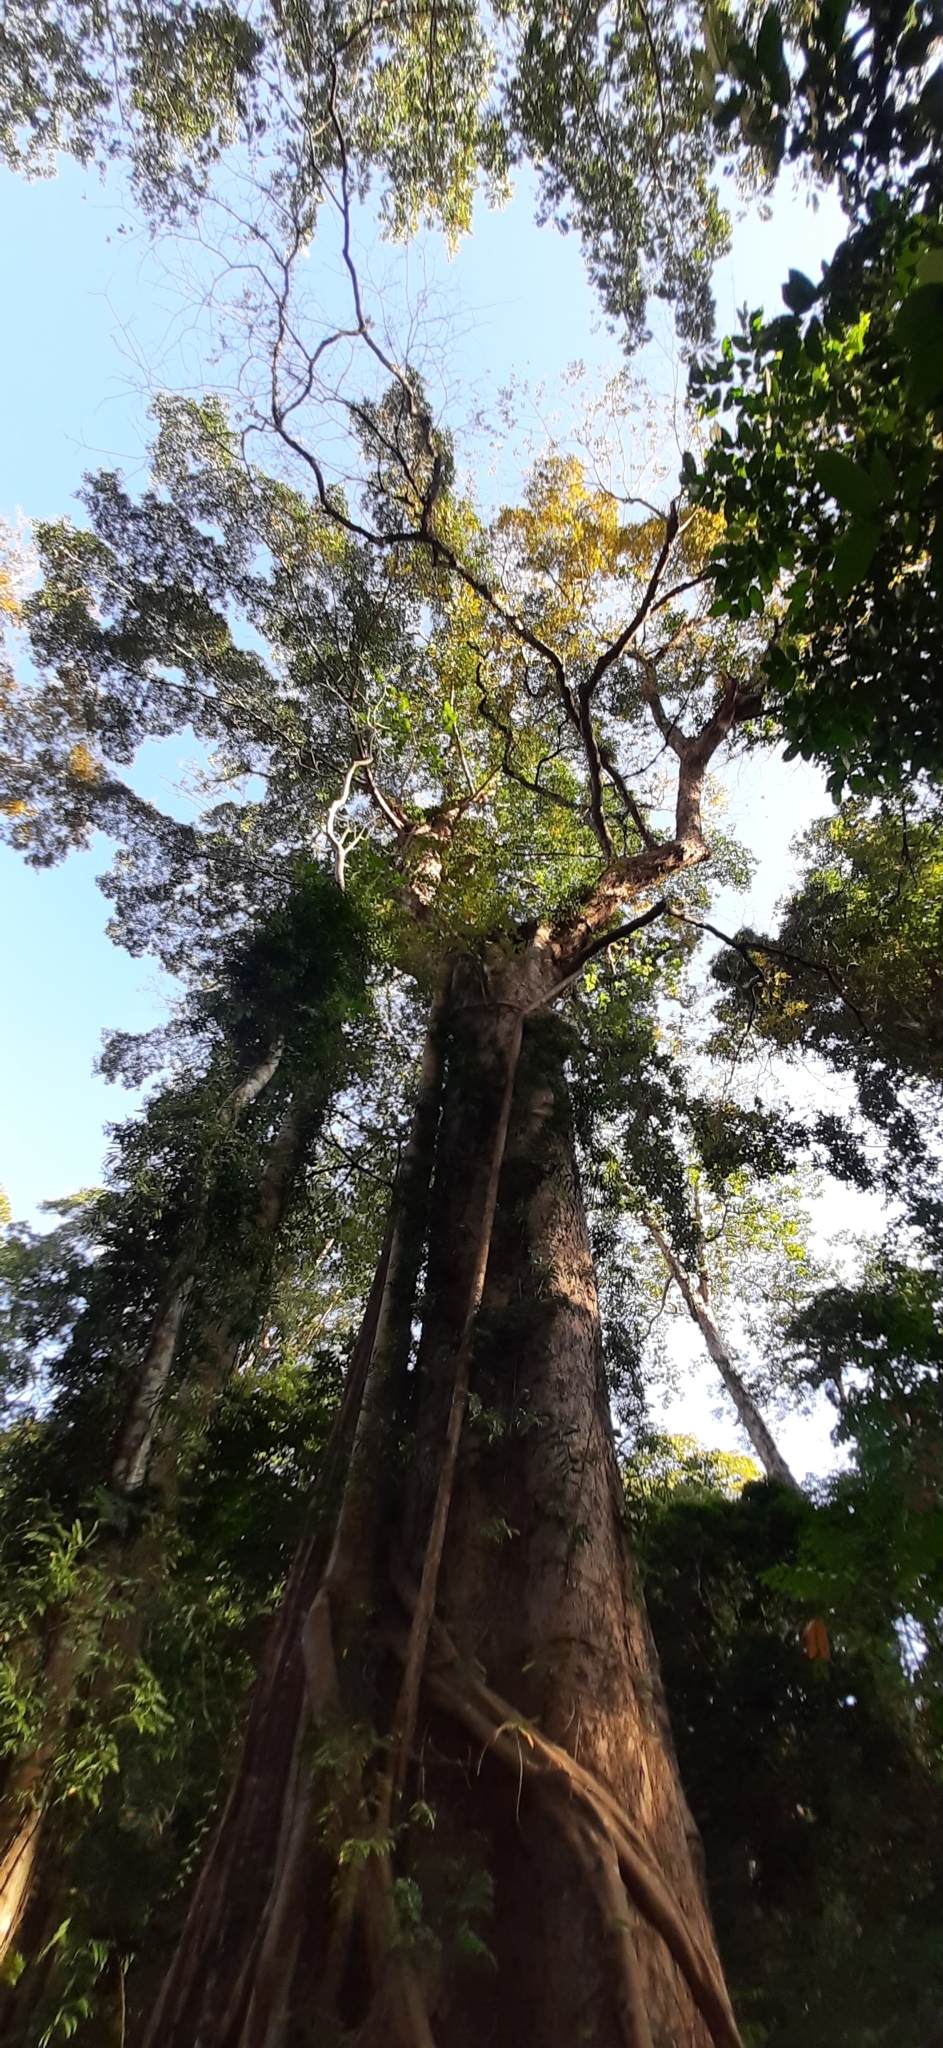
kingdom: Plantae
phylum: Tracheophyta
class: Magnoliopsida
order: Fabales
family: Fabaceae
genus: Pterocarpus
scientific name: Pterocarpus dalbergioides
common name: Andaman redwood
